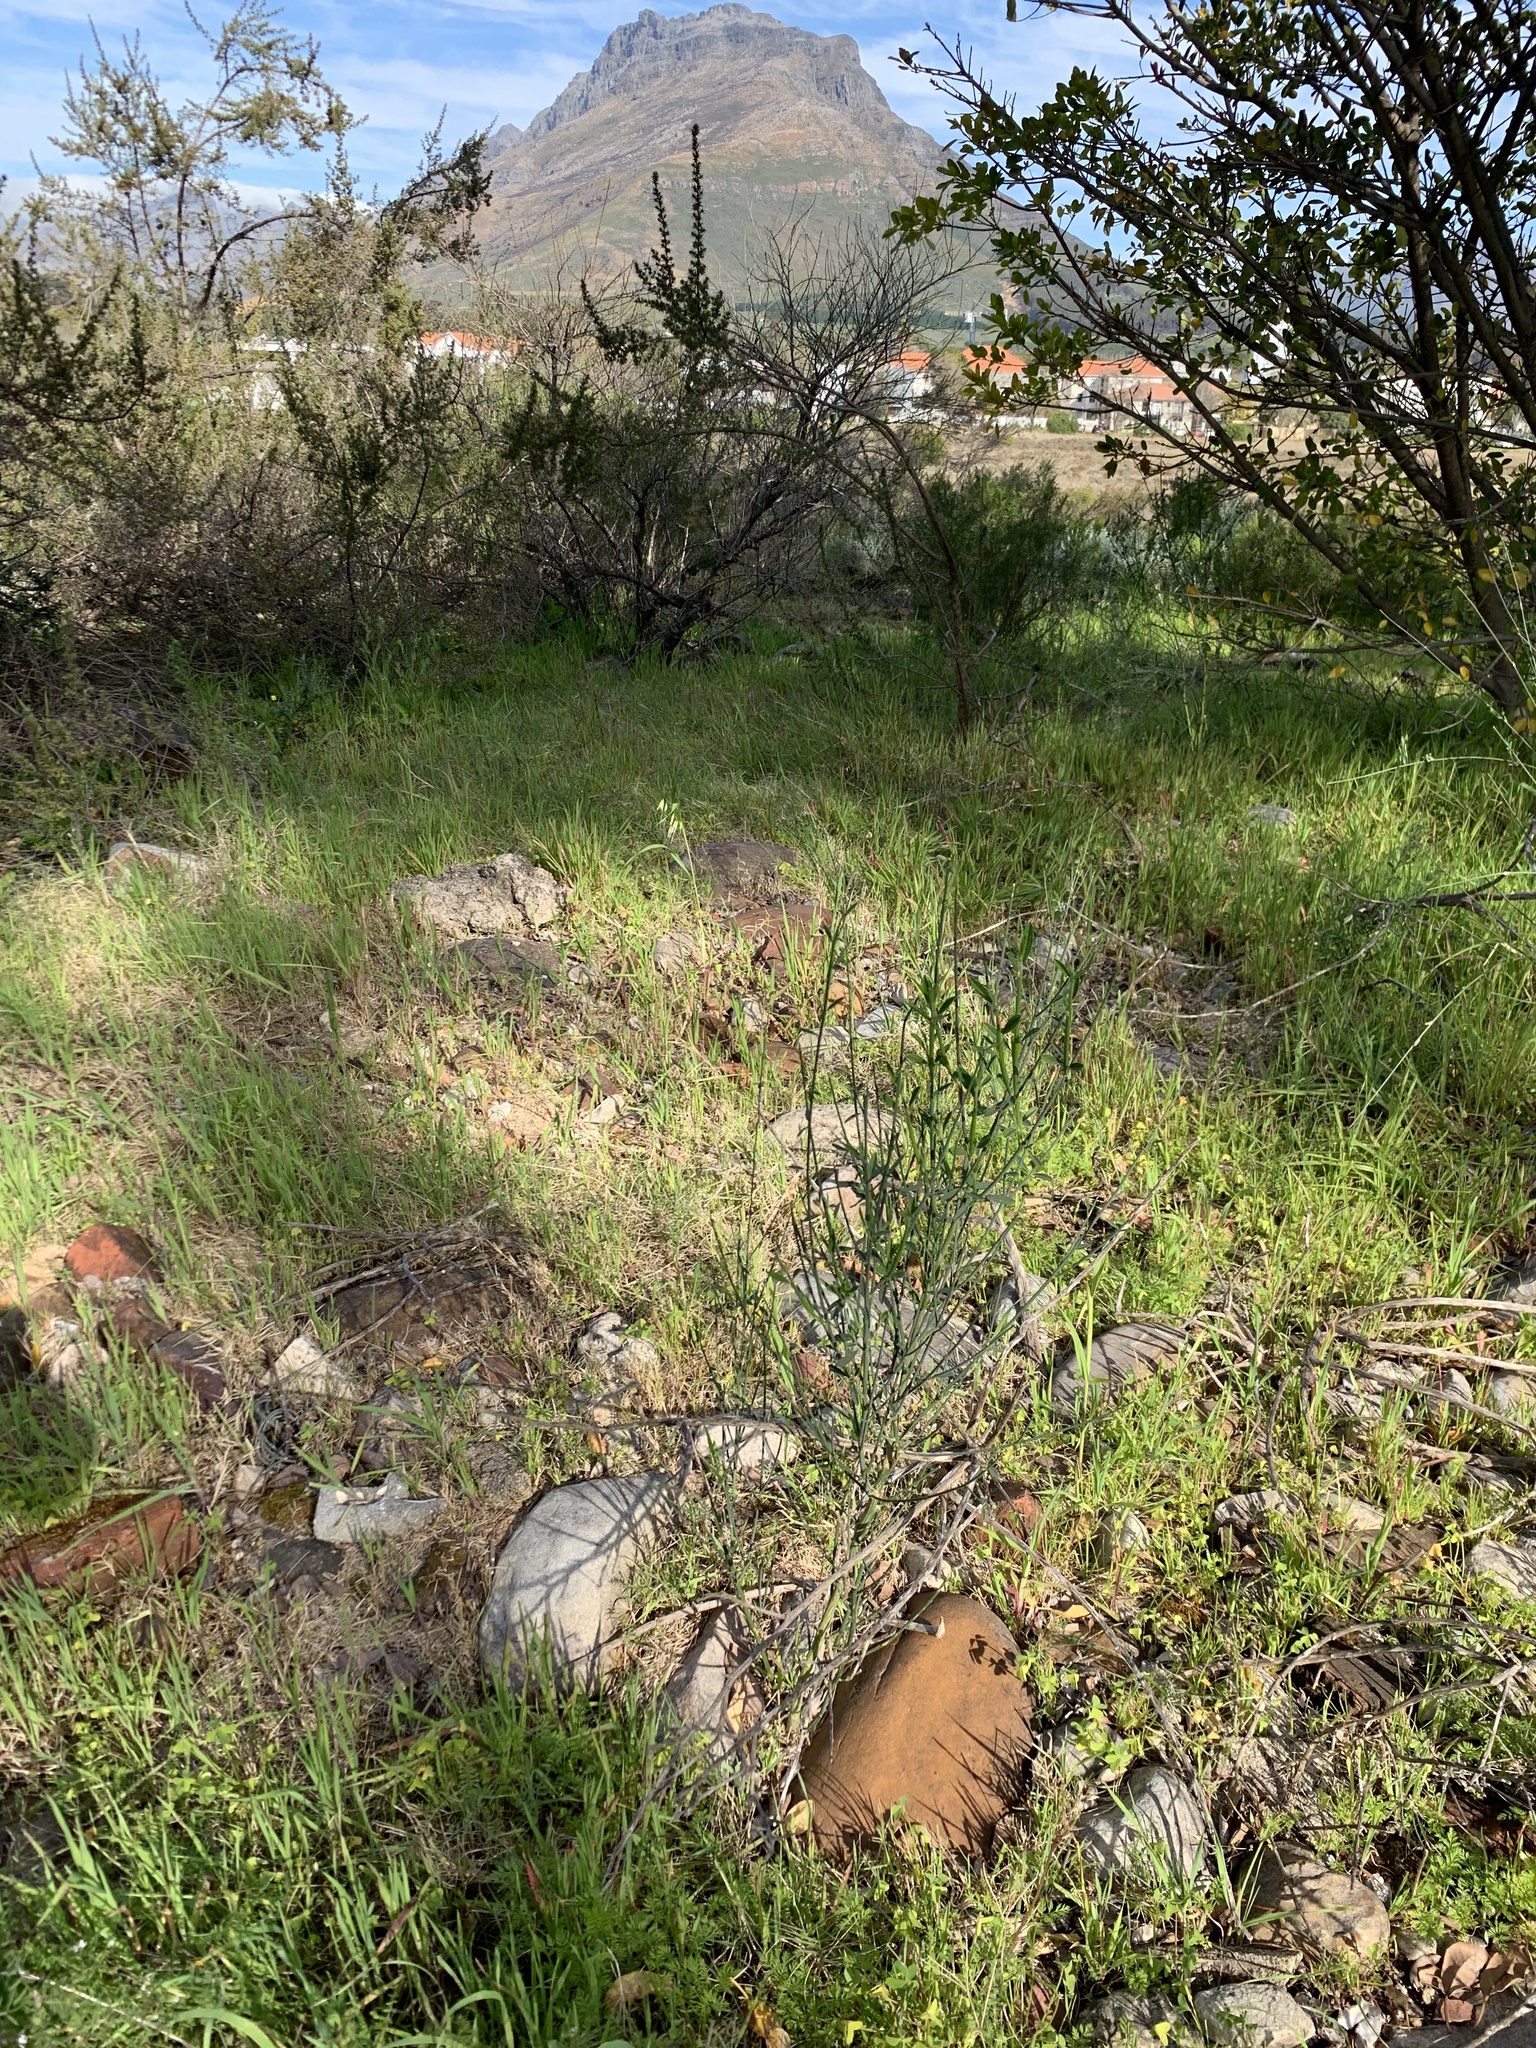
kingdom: Plantae
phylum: Tracheophyta
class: Magnoliopsida
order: Fabales
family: Fabaceae
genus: Spartium
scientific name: Spartium junceum
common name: Spanish broom
